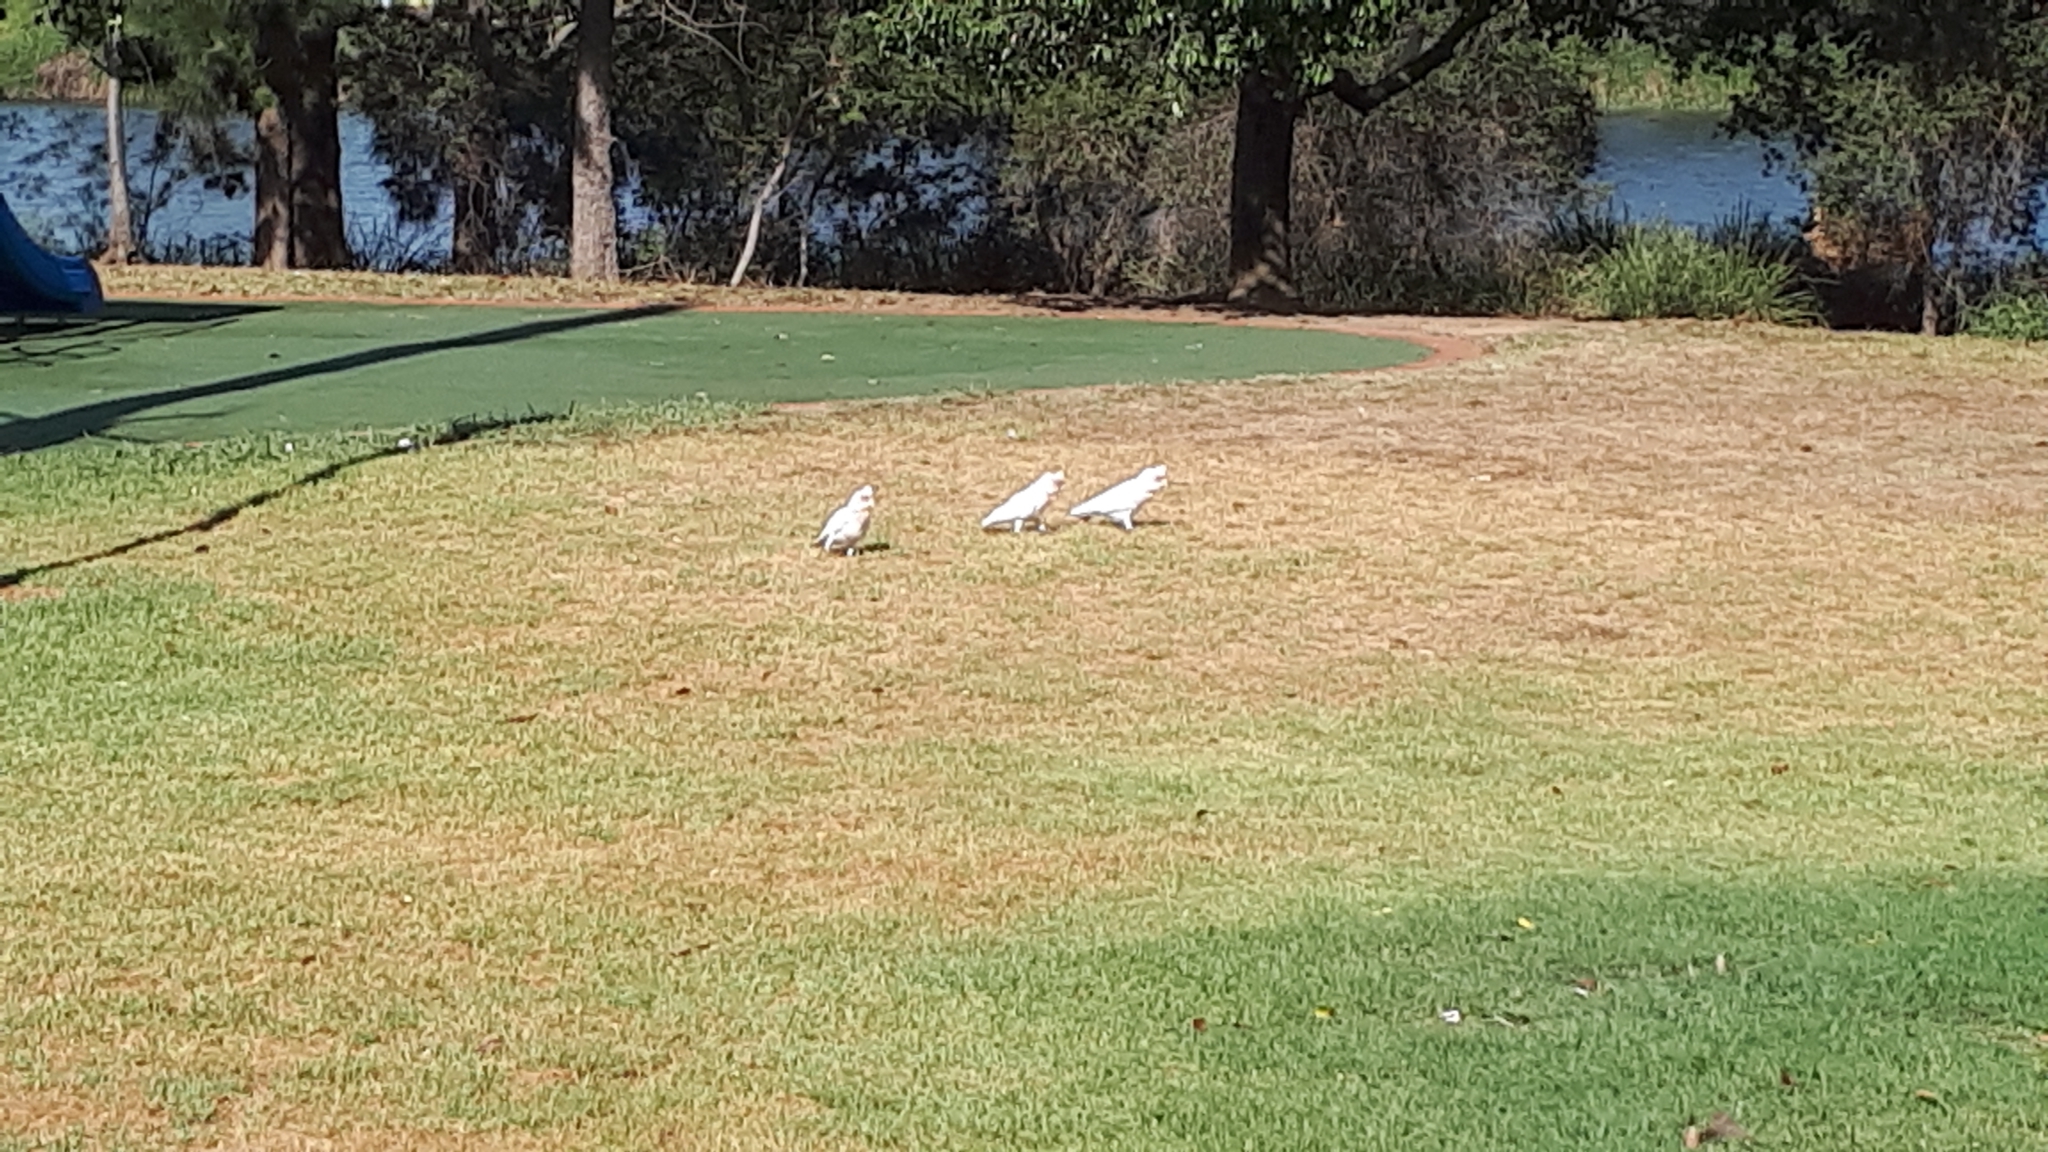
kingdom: Animalia
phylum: Chordata
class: Aves
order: Psittaciformes
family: Psittacidae
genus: Cacatua
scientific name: Cacatua tenuirostris
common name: Long-billed corella
